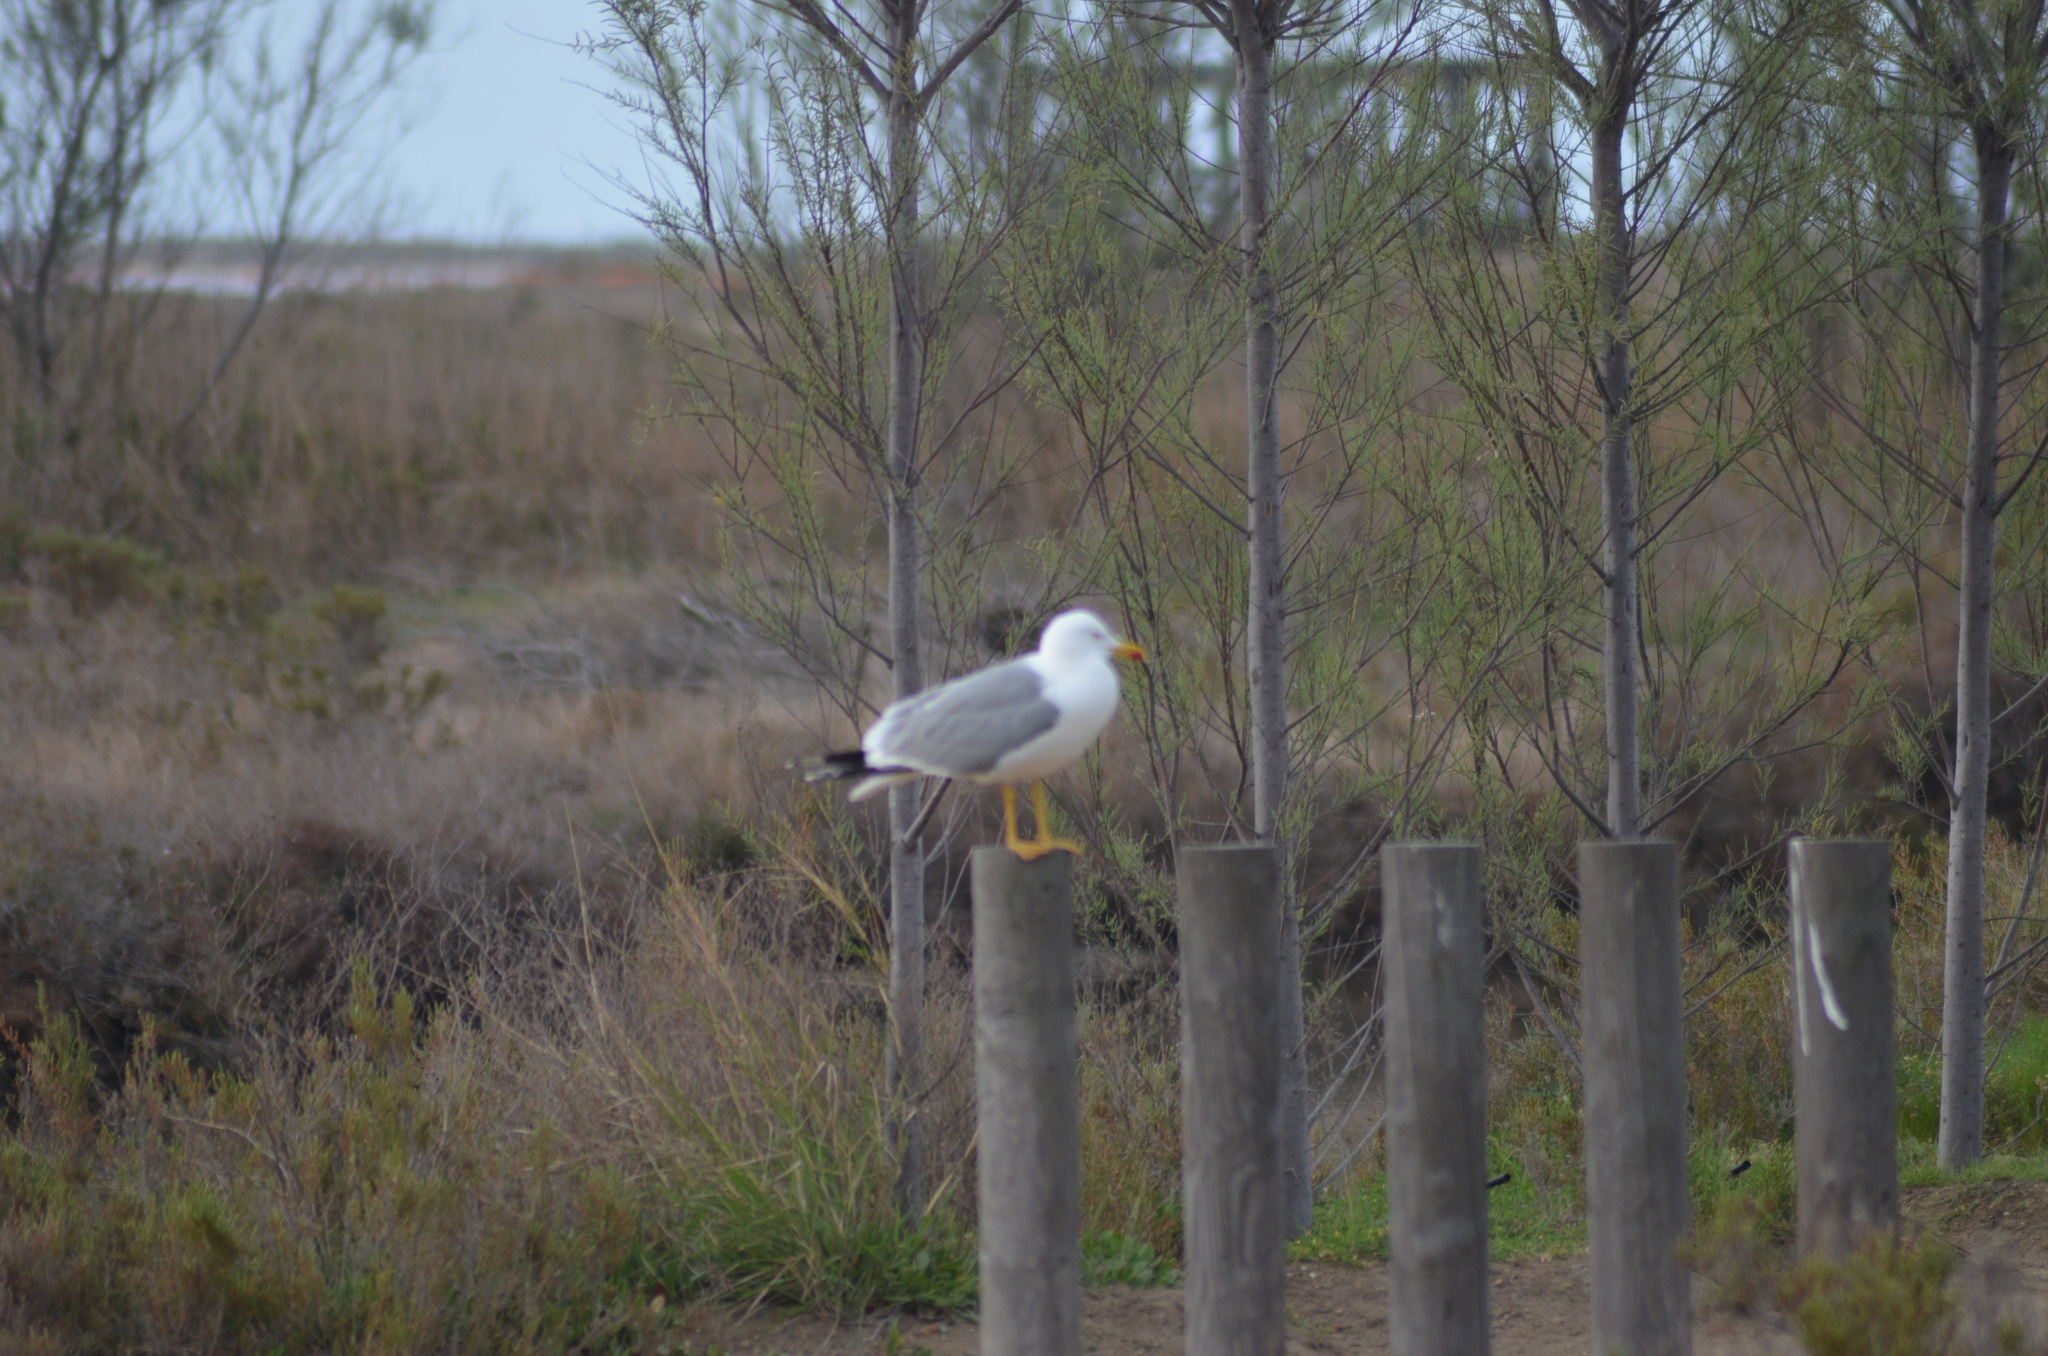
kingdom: Animalia
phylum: Chordata
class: Aves
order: Charadriiformes
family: Laridae
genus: Larus
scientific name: Larus michahellis
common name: Yellow-legged gull
